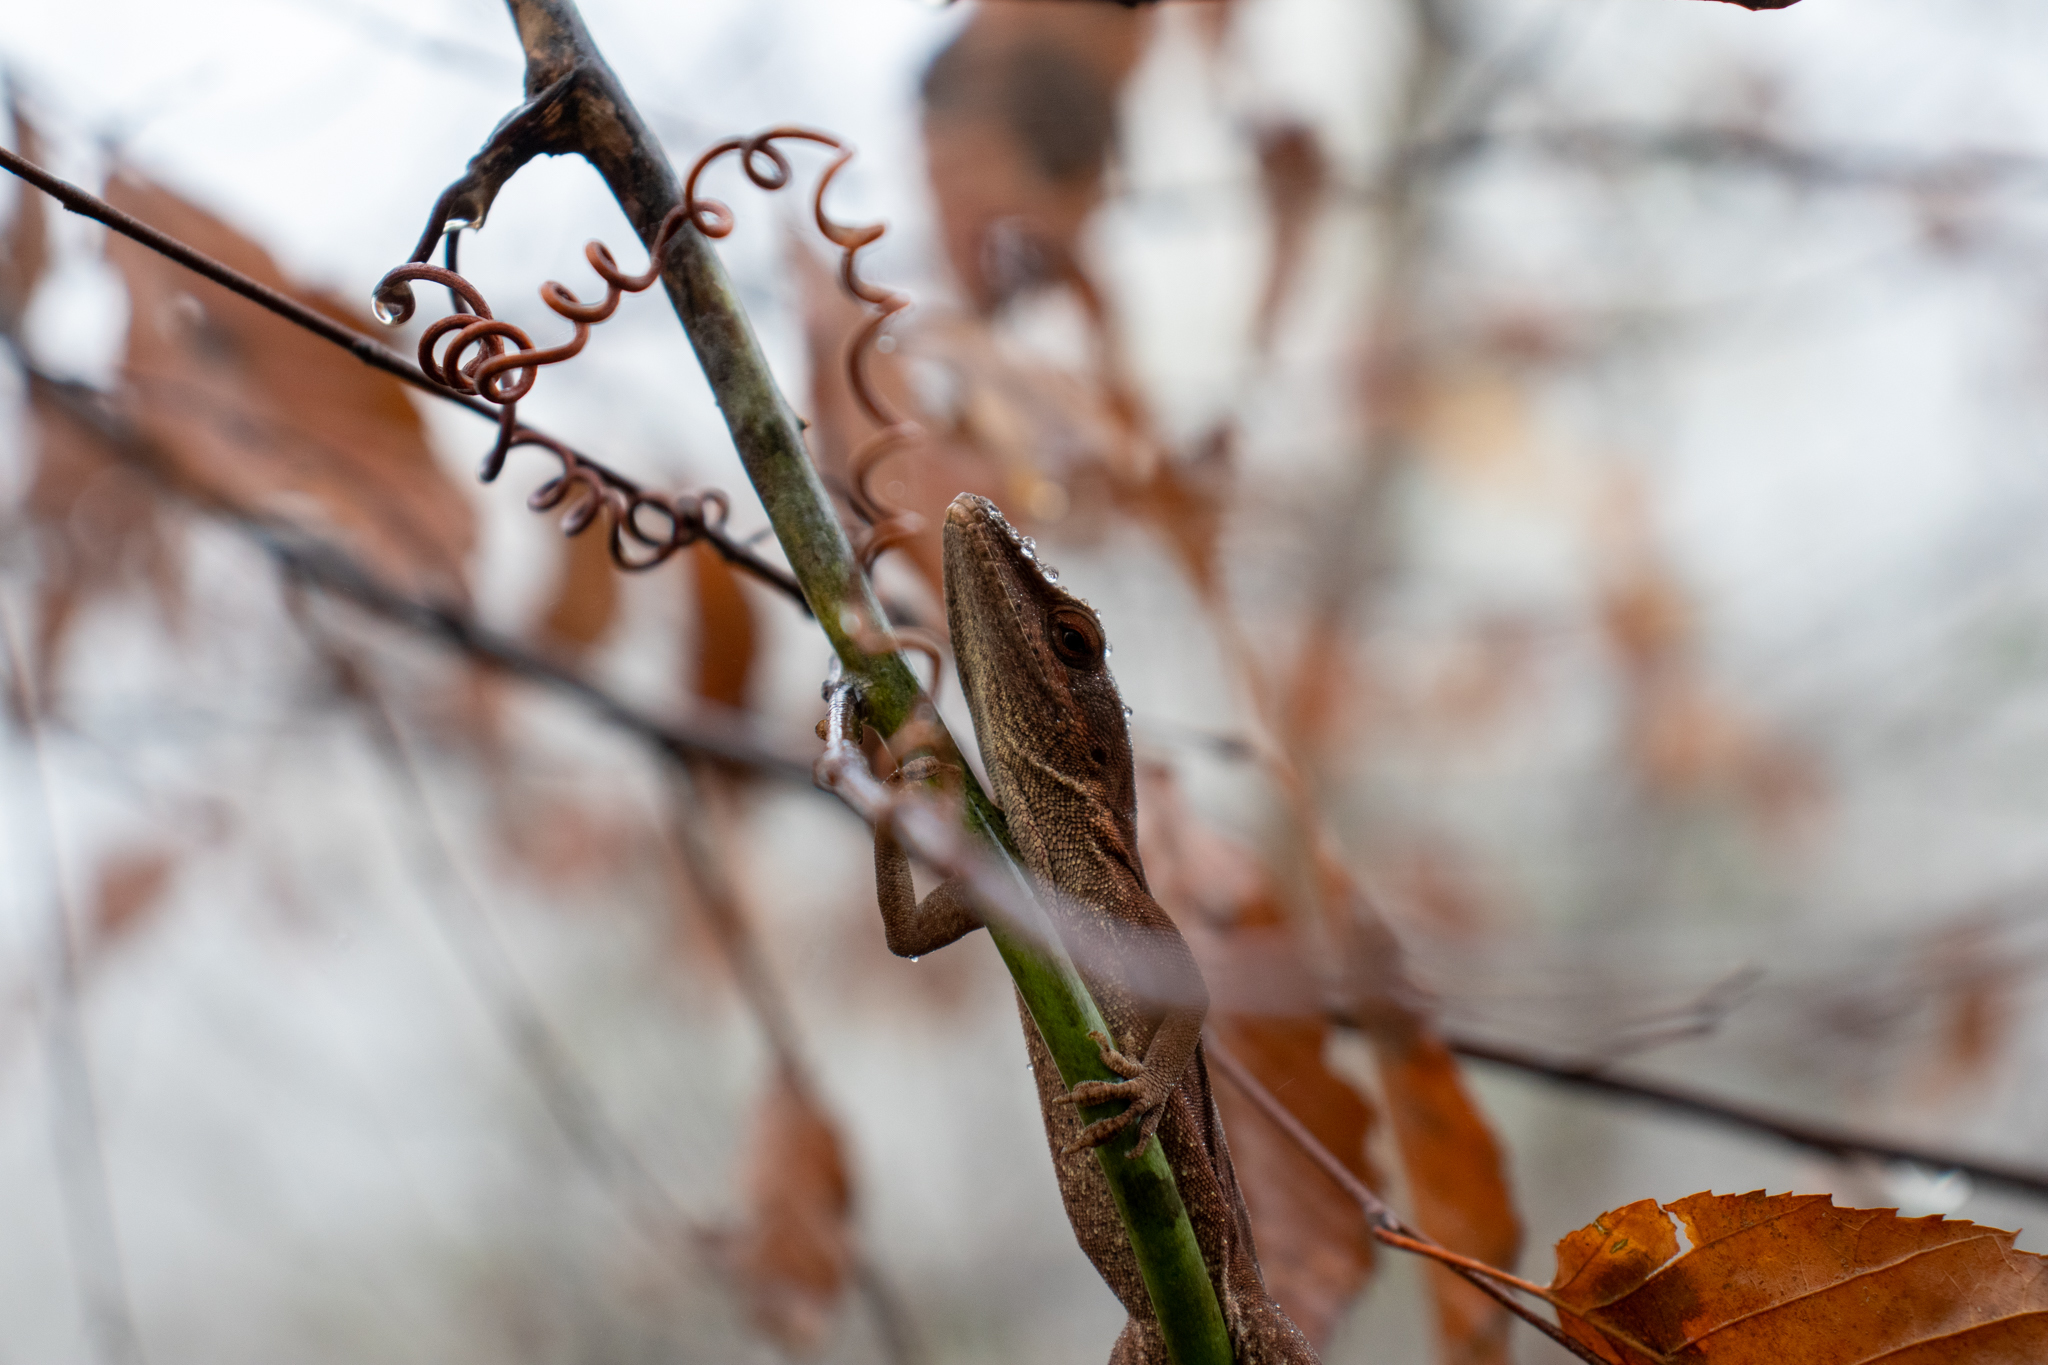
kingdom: Animalia
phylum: Chordata
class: Squamata
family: Dactyloidae
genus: Anolis
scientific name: Anolis carolinensis
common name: Green anole
